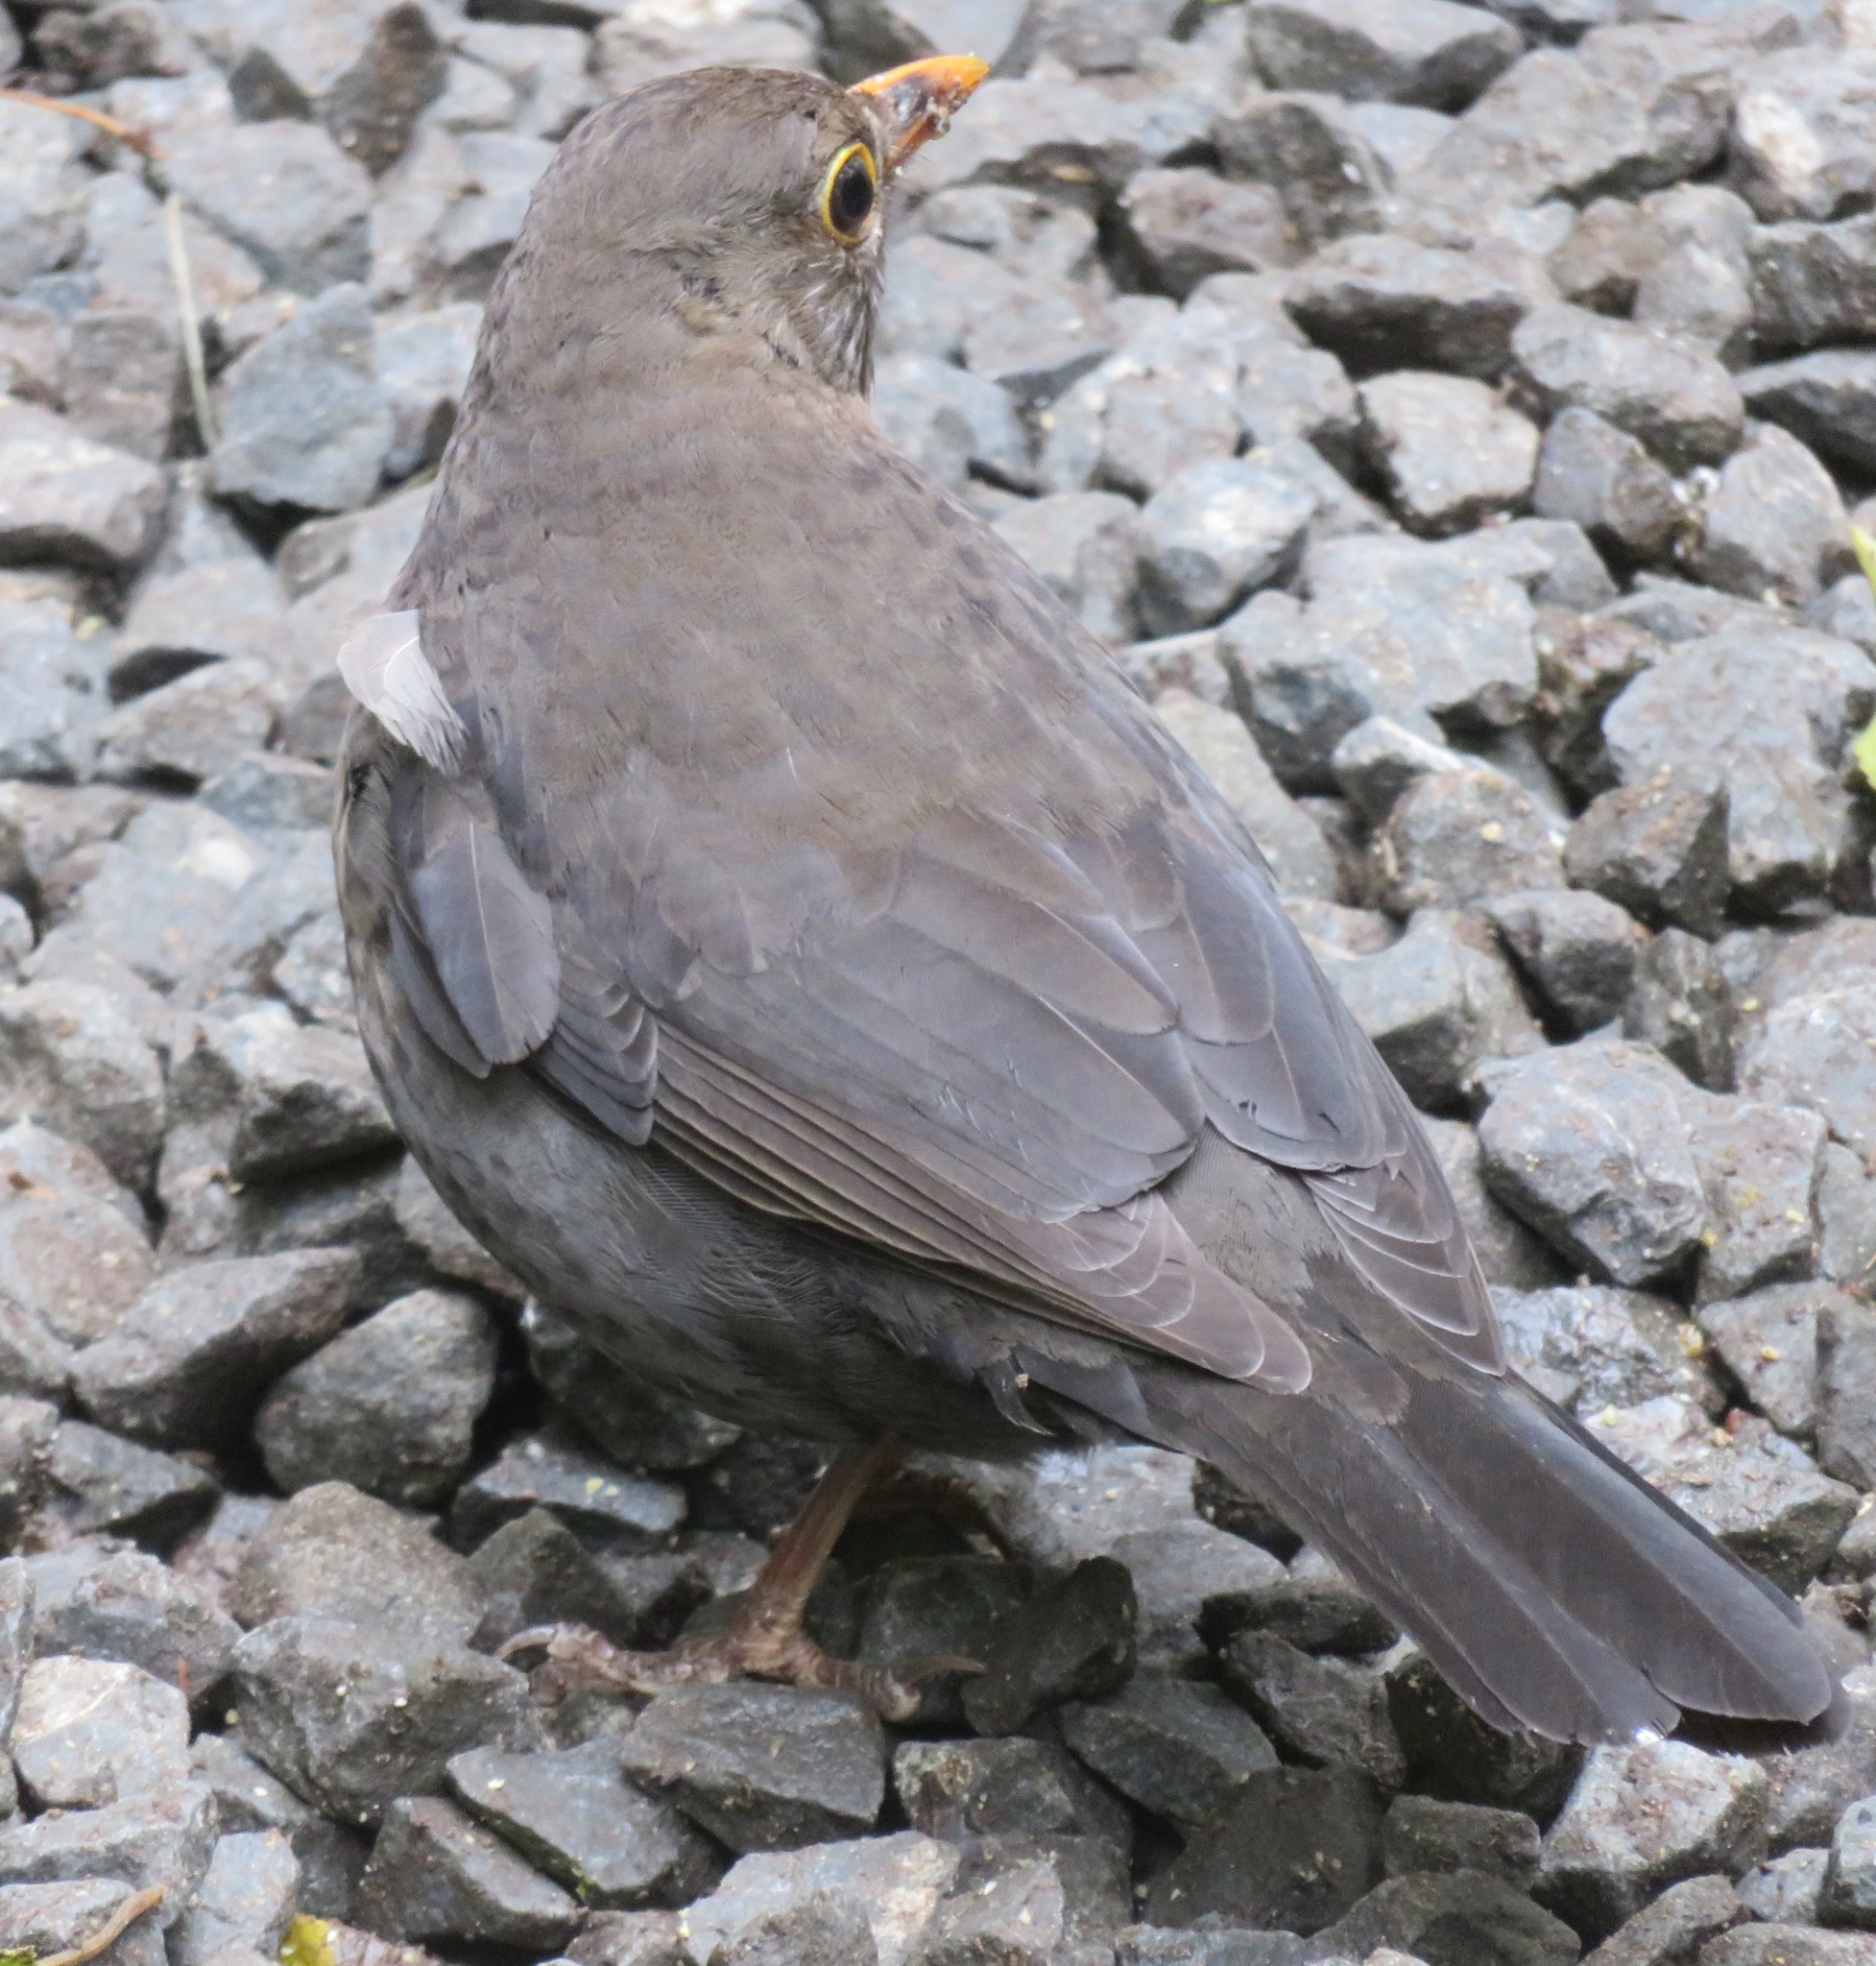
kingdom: Animalia
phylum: Chordata
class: Aves
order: Passeriformes
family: Turdidae
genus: Turdus
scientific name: Turdus merula
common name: Common blackbird
